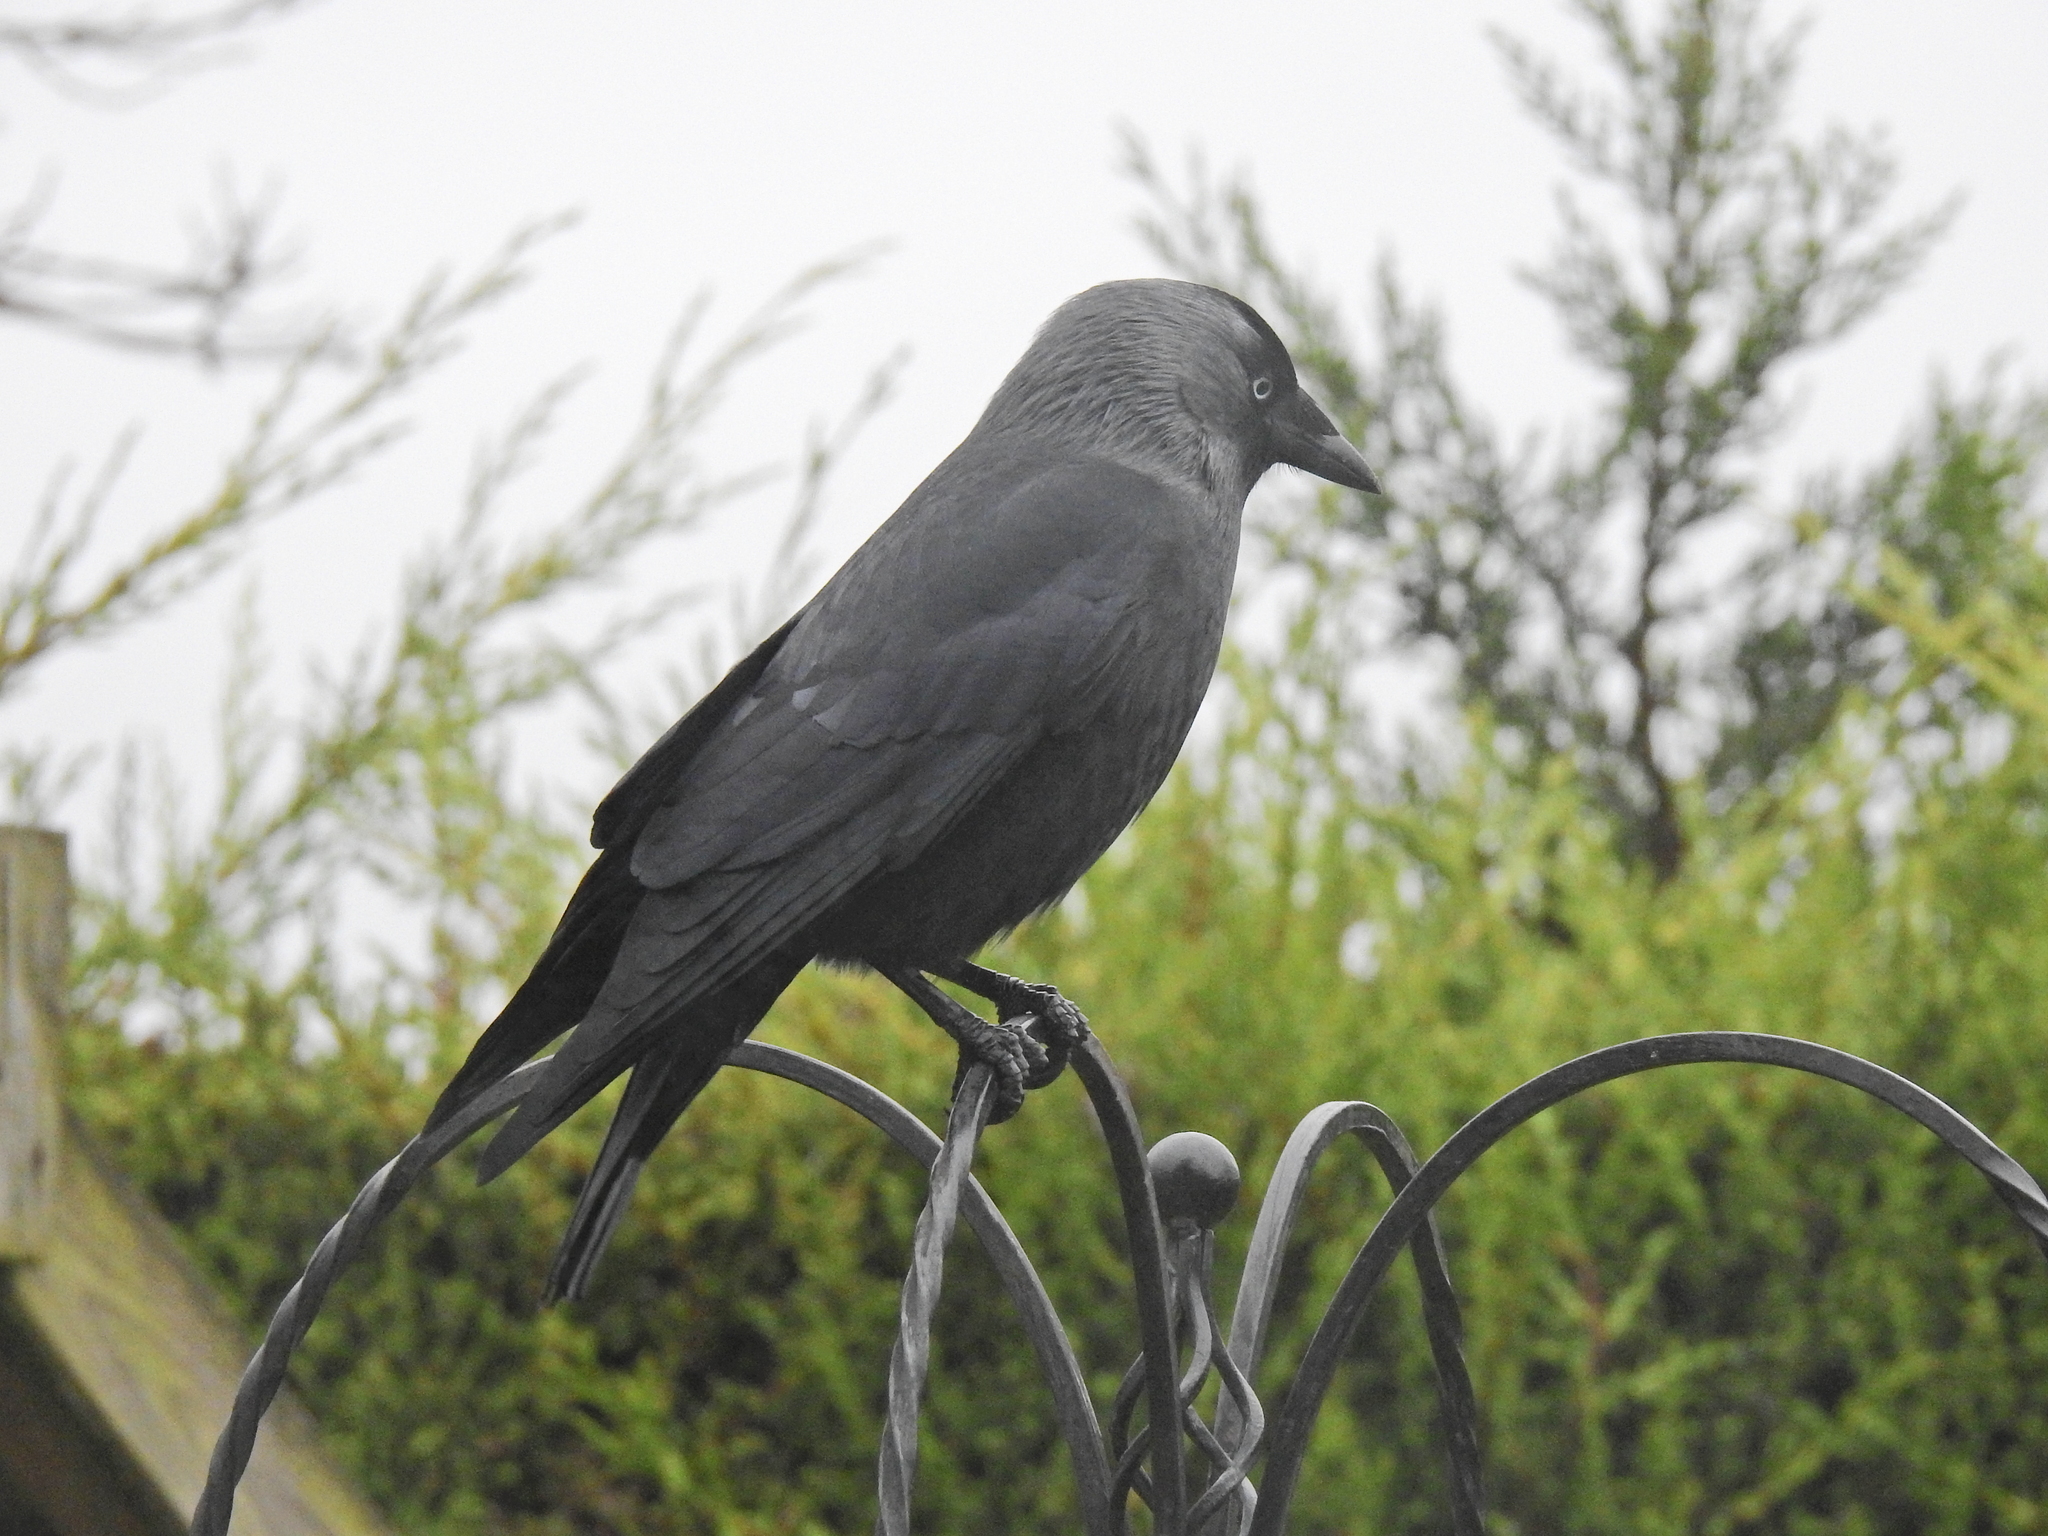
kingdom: Animalia
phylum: Chordata
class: Aves
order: Passeriformes
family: Corvidae
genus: Coloeus
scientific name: Coloeus monedula
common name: Western jackdaw
